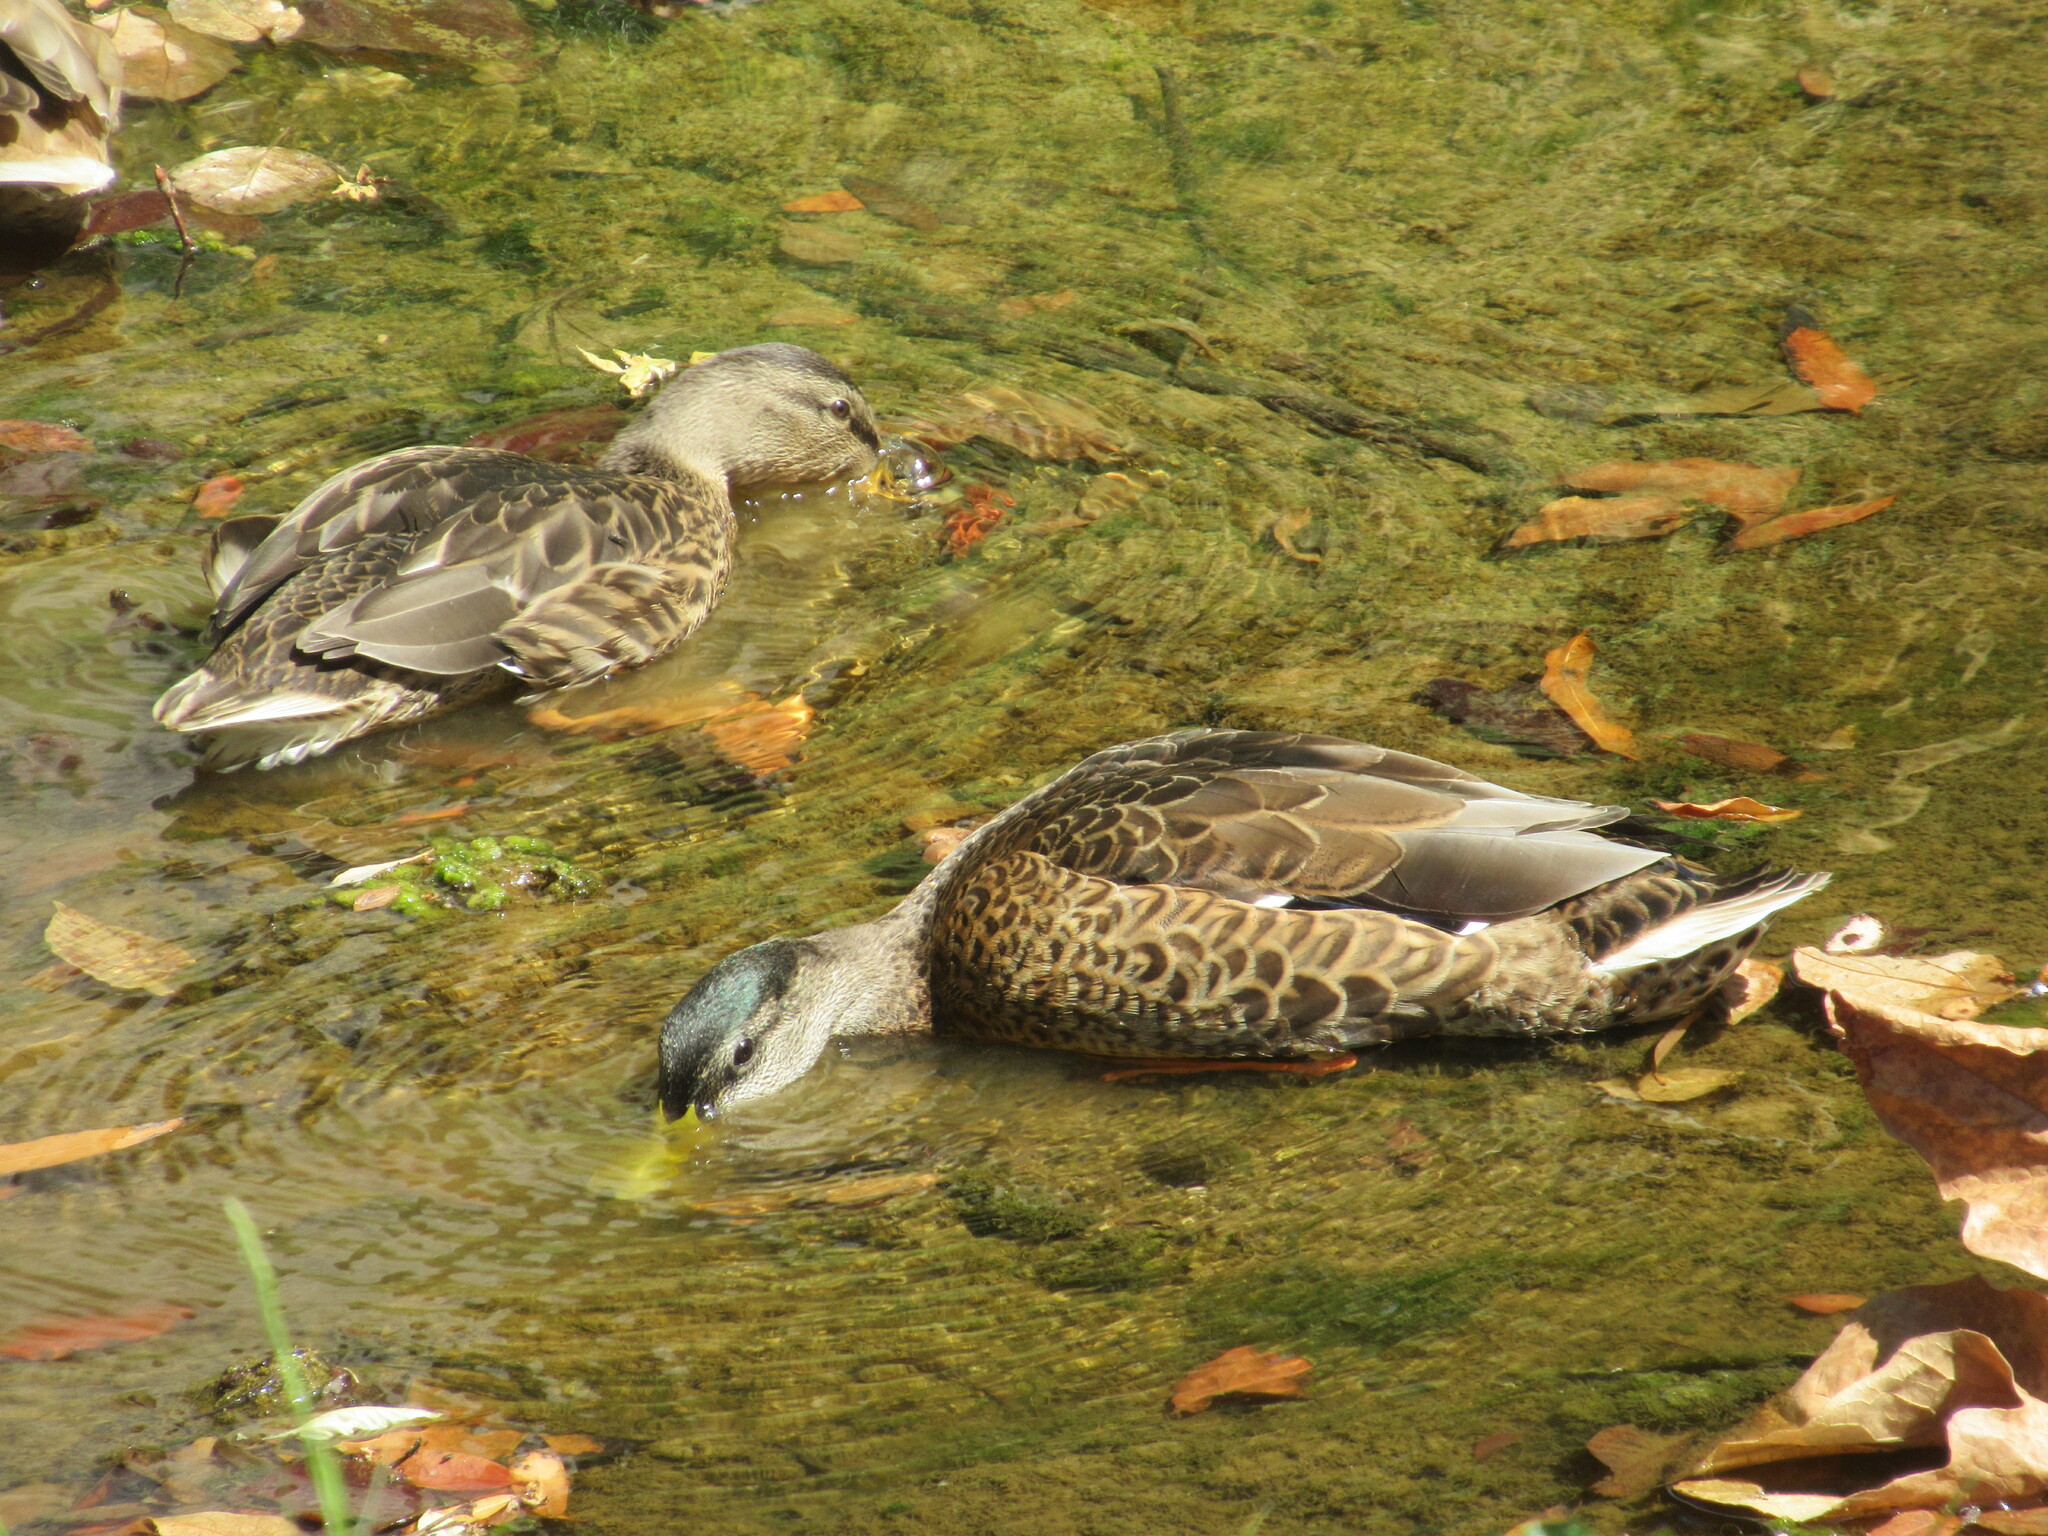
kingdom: Animalia
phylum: Chordata
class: Aves
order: Anseriformes
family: Anatidae
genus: Anas
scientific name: Anas platyrhynchos
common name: Mallard
